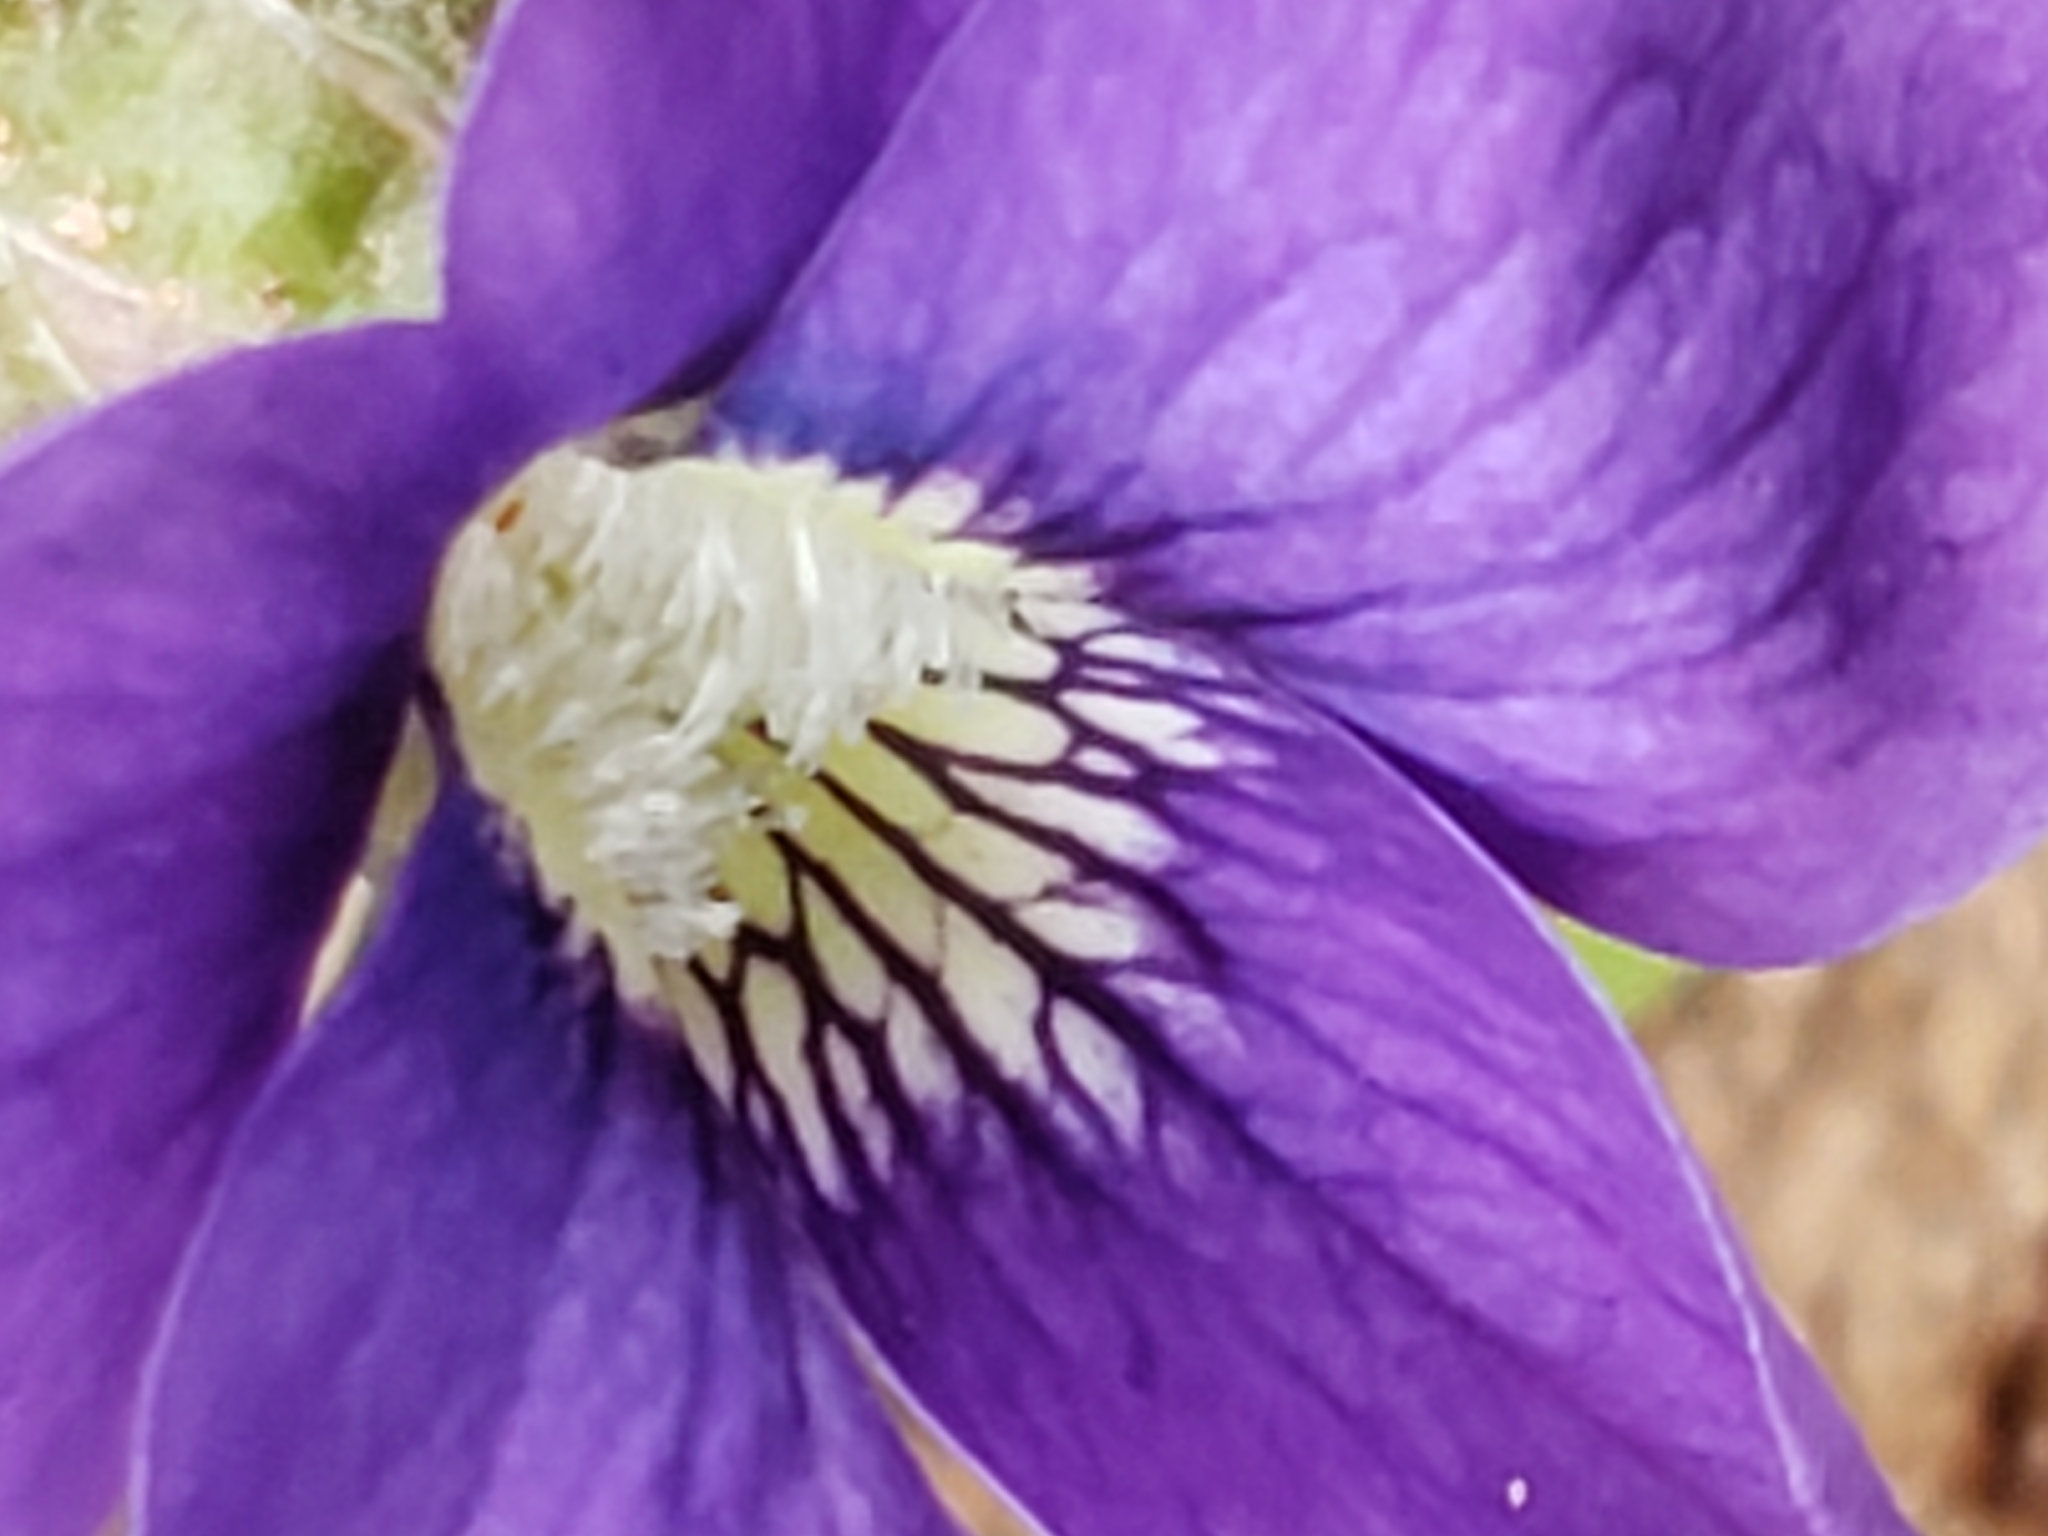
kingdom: Plantae
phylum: Tracheophyta
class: Magnoliopsida
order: Malpighiales
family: Violaceae
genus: Viola
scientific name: Viola sororia
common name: Dooryard violet
